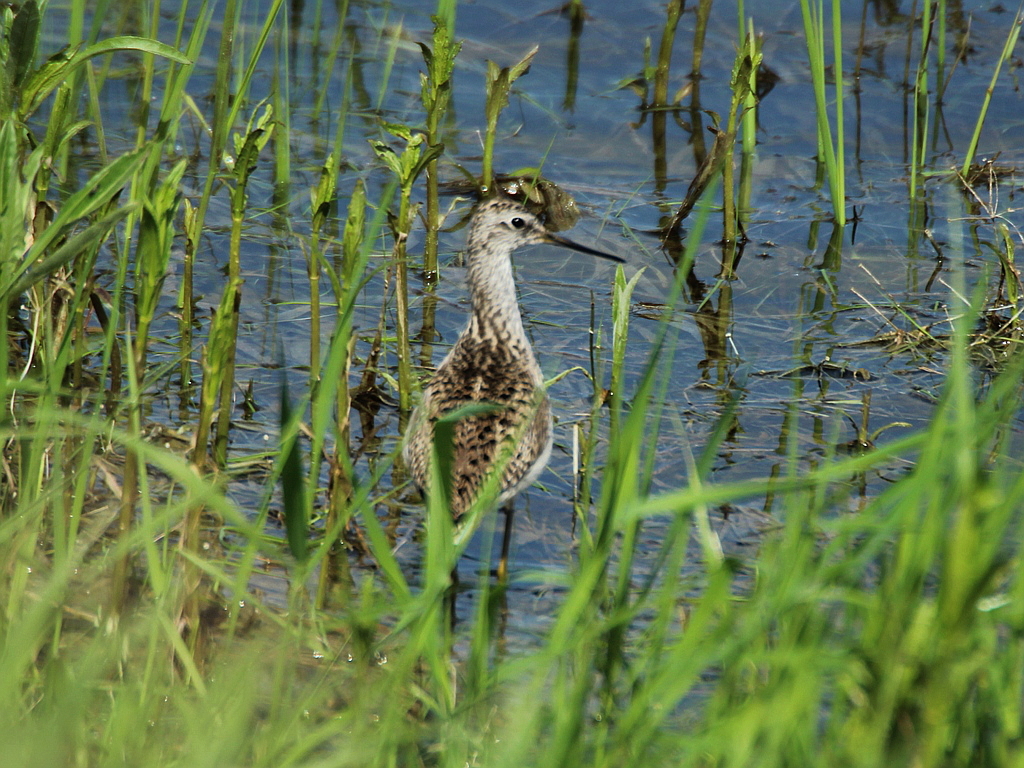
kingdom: Animalia
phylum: Chordata
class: Aves
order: Charadriiformes
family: Scolopacidae
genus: Tringa
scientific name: Tringa stagnatilis
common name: Marsh sandpiper
